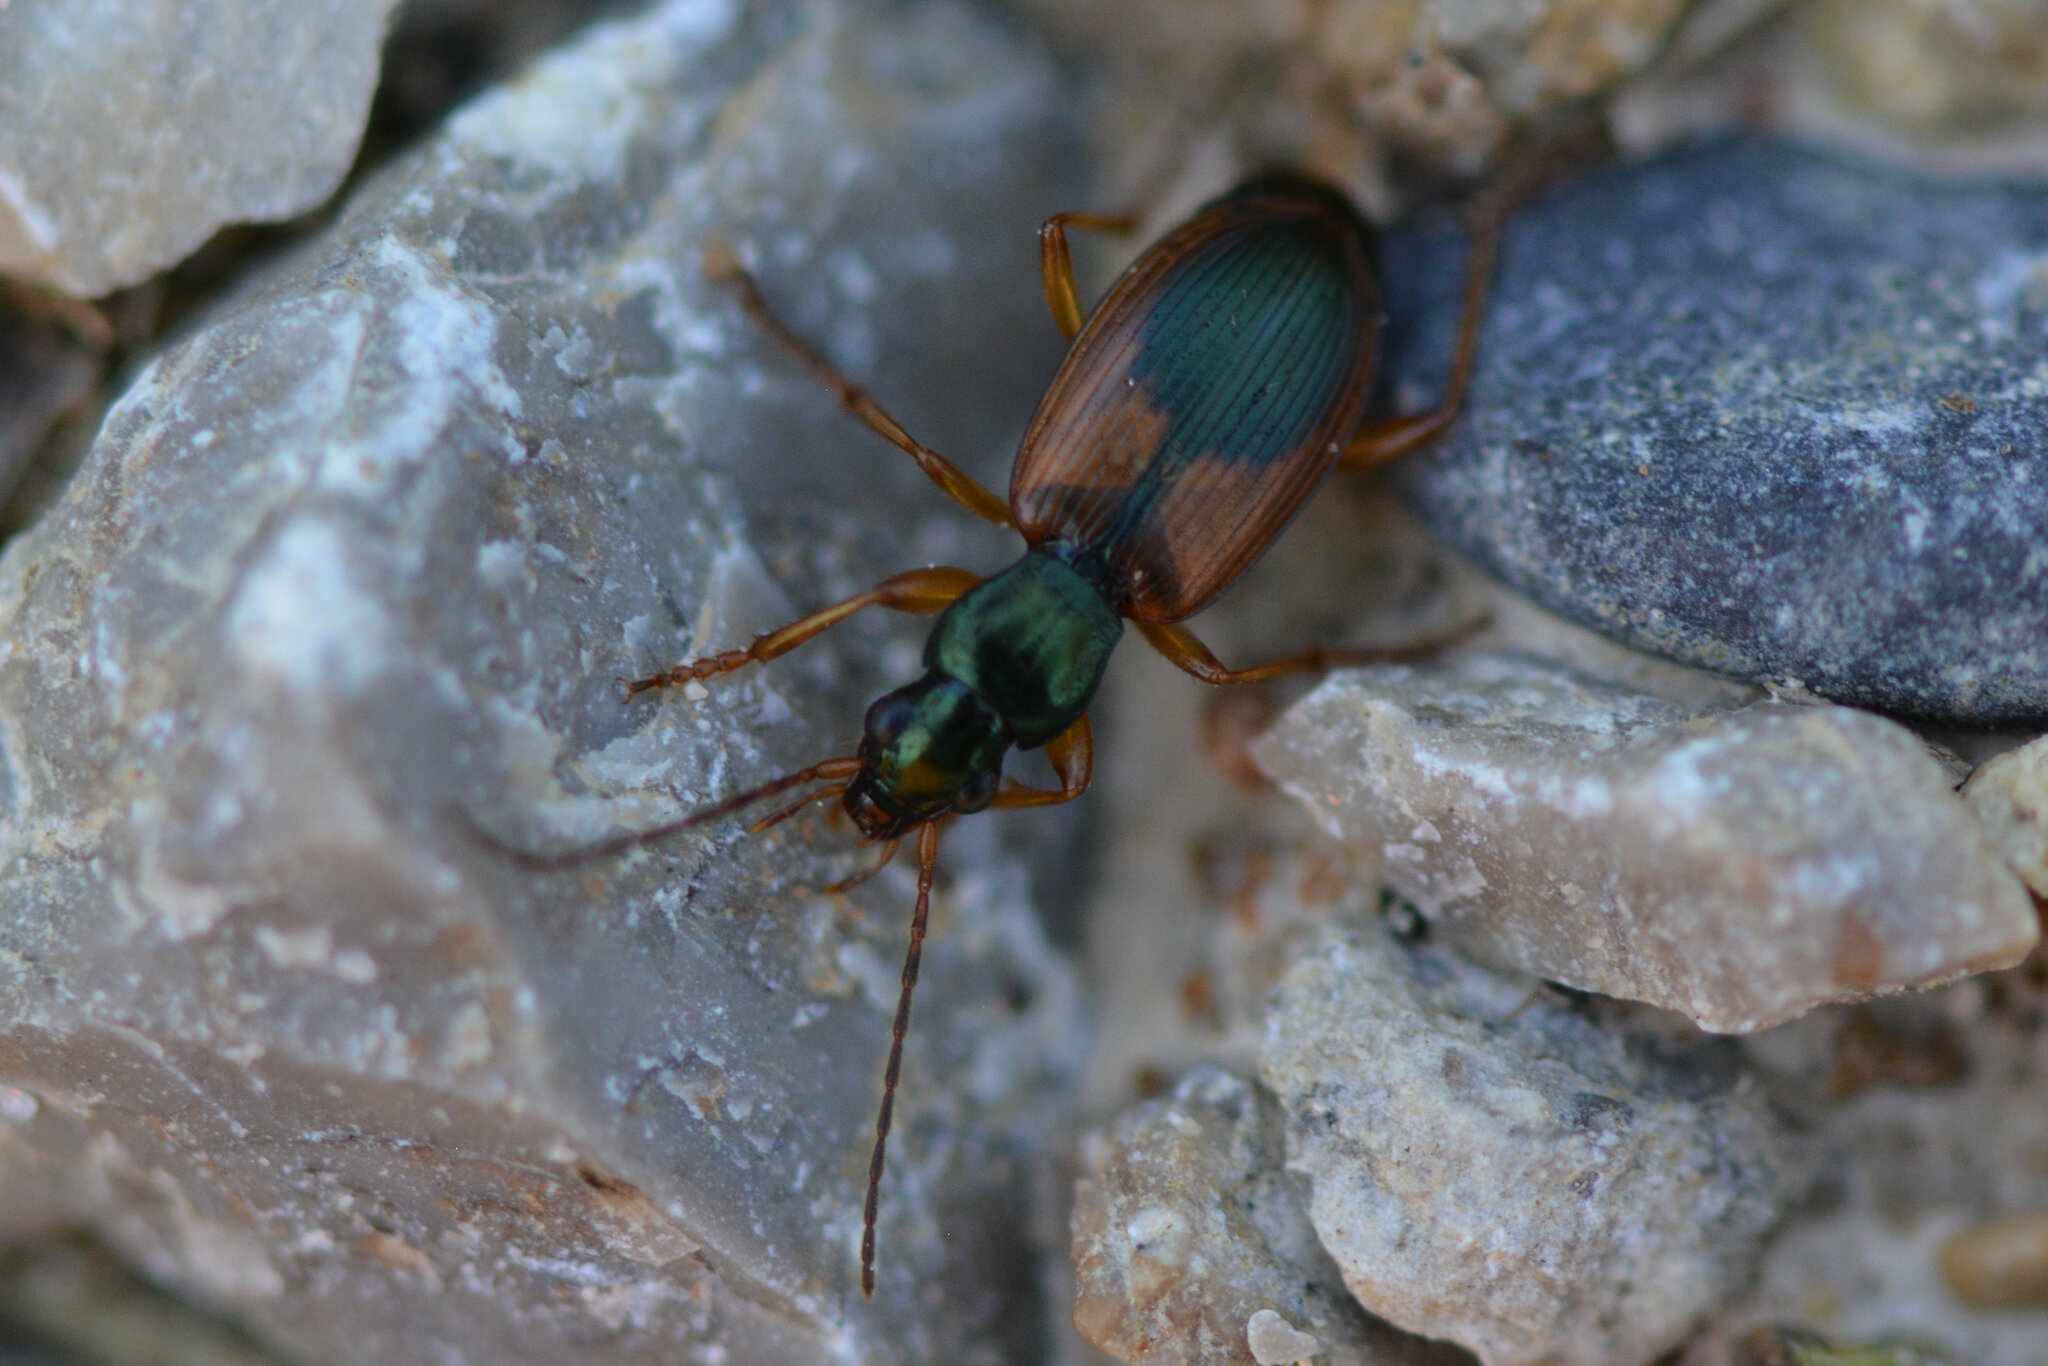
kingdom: Animalia
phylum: Arthropoda
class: Insecta
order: Coleoptera
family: Carabidae
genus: Anchomenus
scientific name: Anchomenus dorsalis
